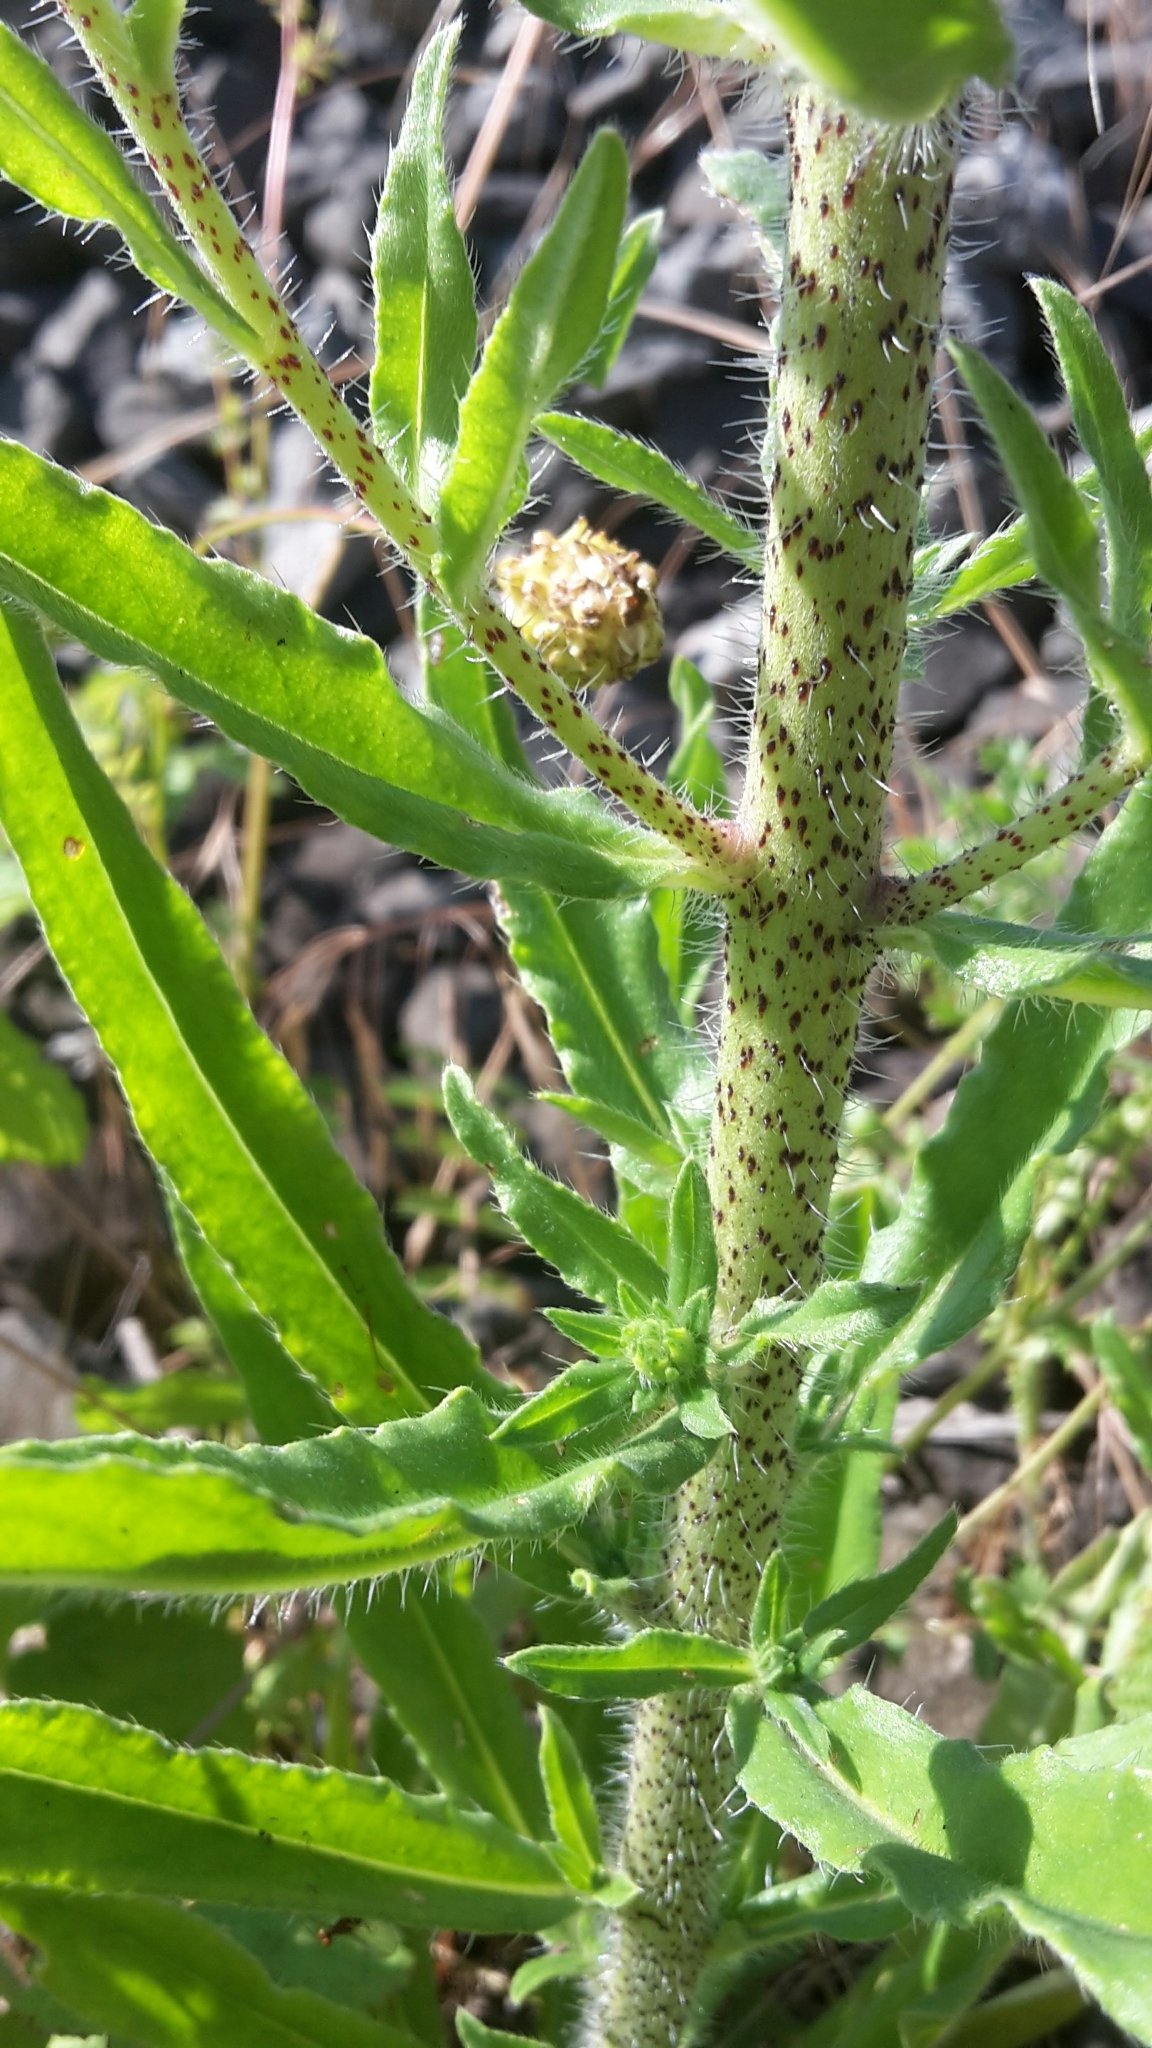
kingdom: Plantae
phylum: Tracheophyta
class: Magnoliopsida
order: Boraginales
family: Boraginaceae
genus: Echium
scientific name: Echium vulgare
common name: Common viper's bugloss
